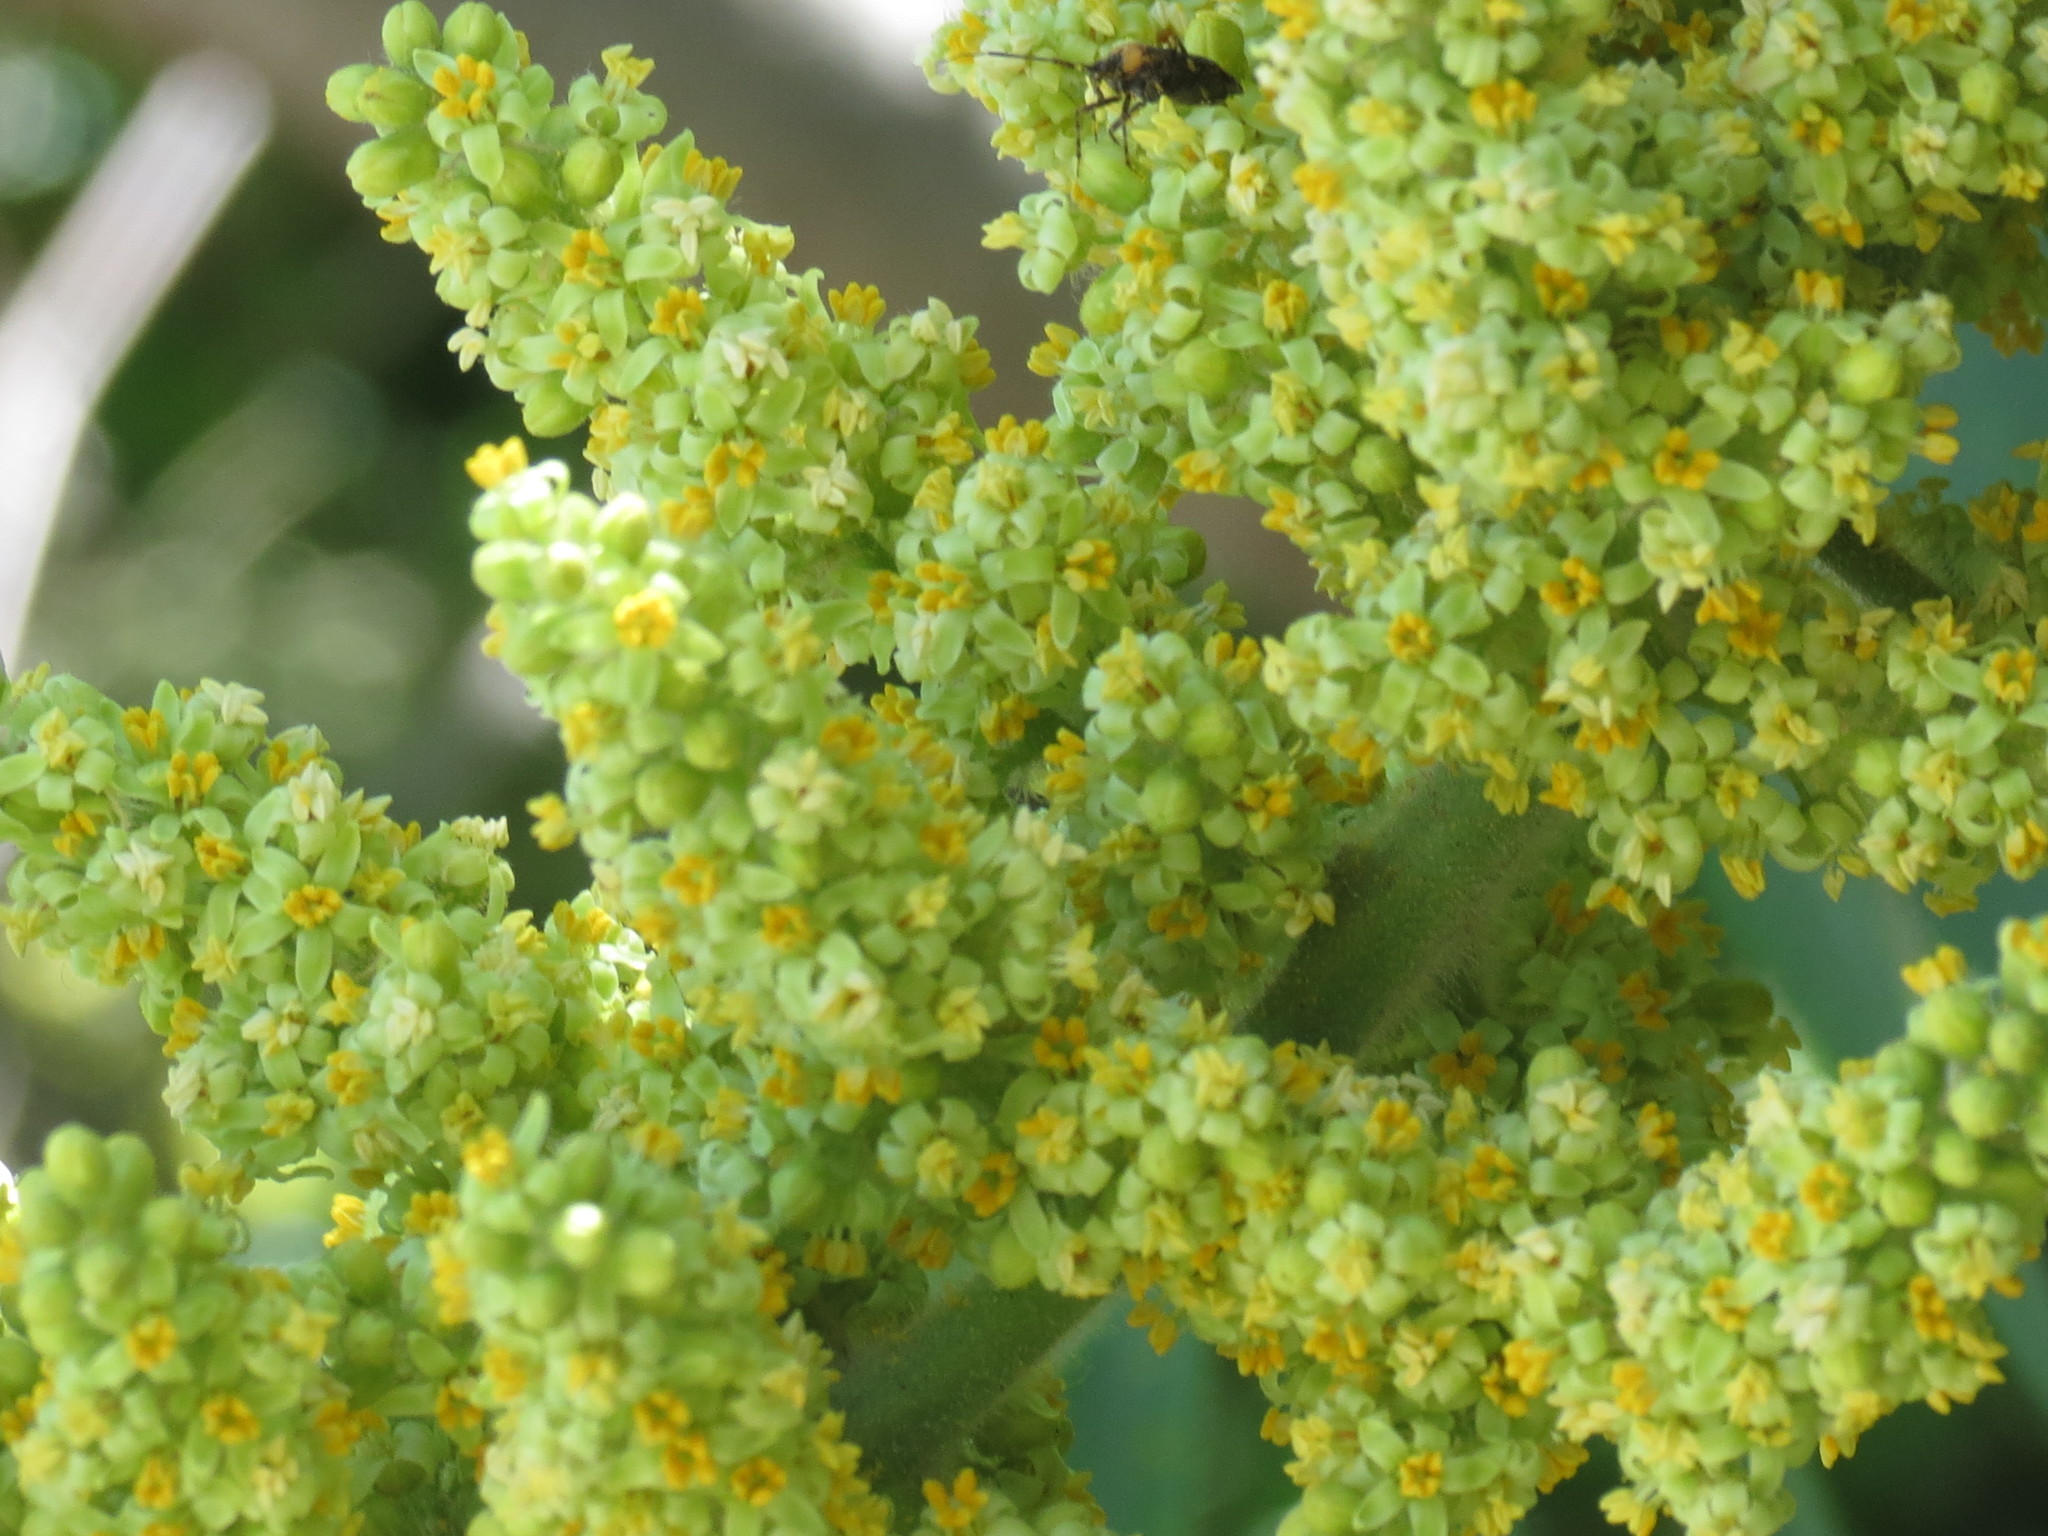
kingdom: Plantae
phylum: Tracheophyta
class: Magnoliopsida
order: Sapindales
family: Anacardiaceae
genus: Rhus
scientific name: Rhus typhina
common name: Staghorn sumac
